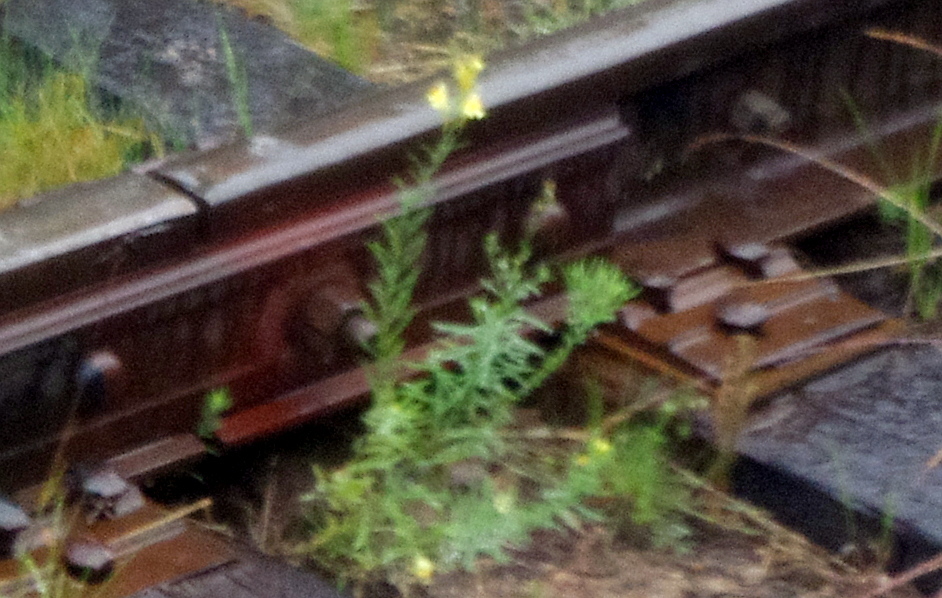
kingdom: Plantae
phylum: Tracheophyta
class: Magnoliopsida
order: Lamiales
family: Plantaginaceae
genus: Linaria
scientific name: Linaria vulgaris
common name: Butter and eggs
